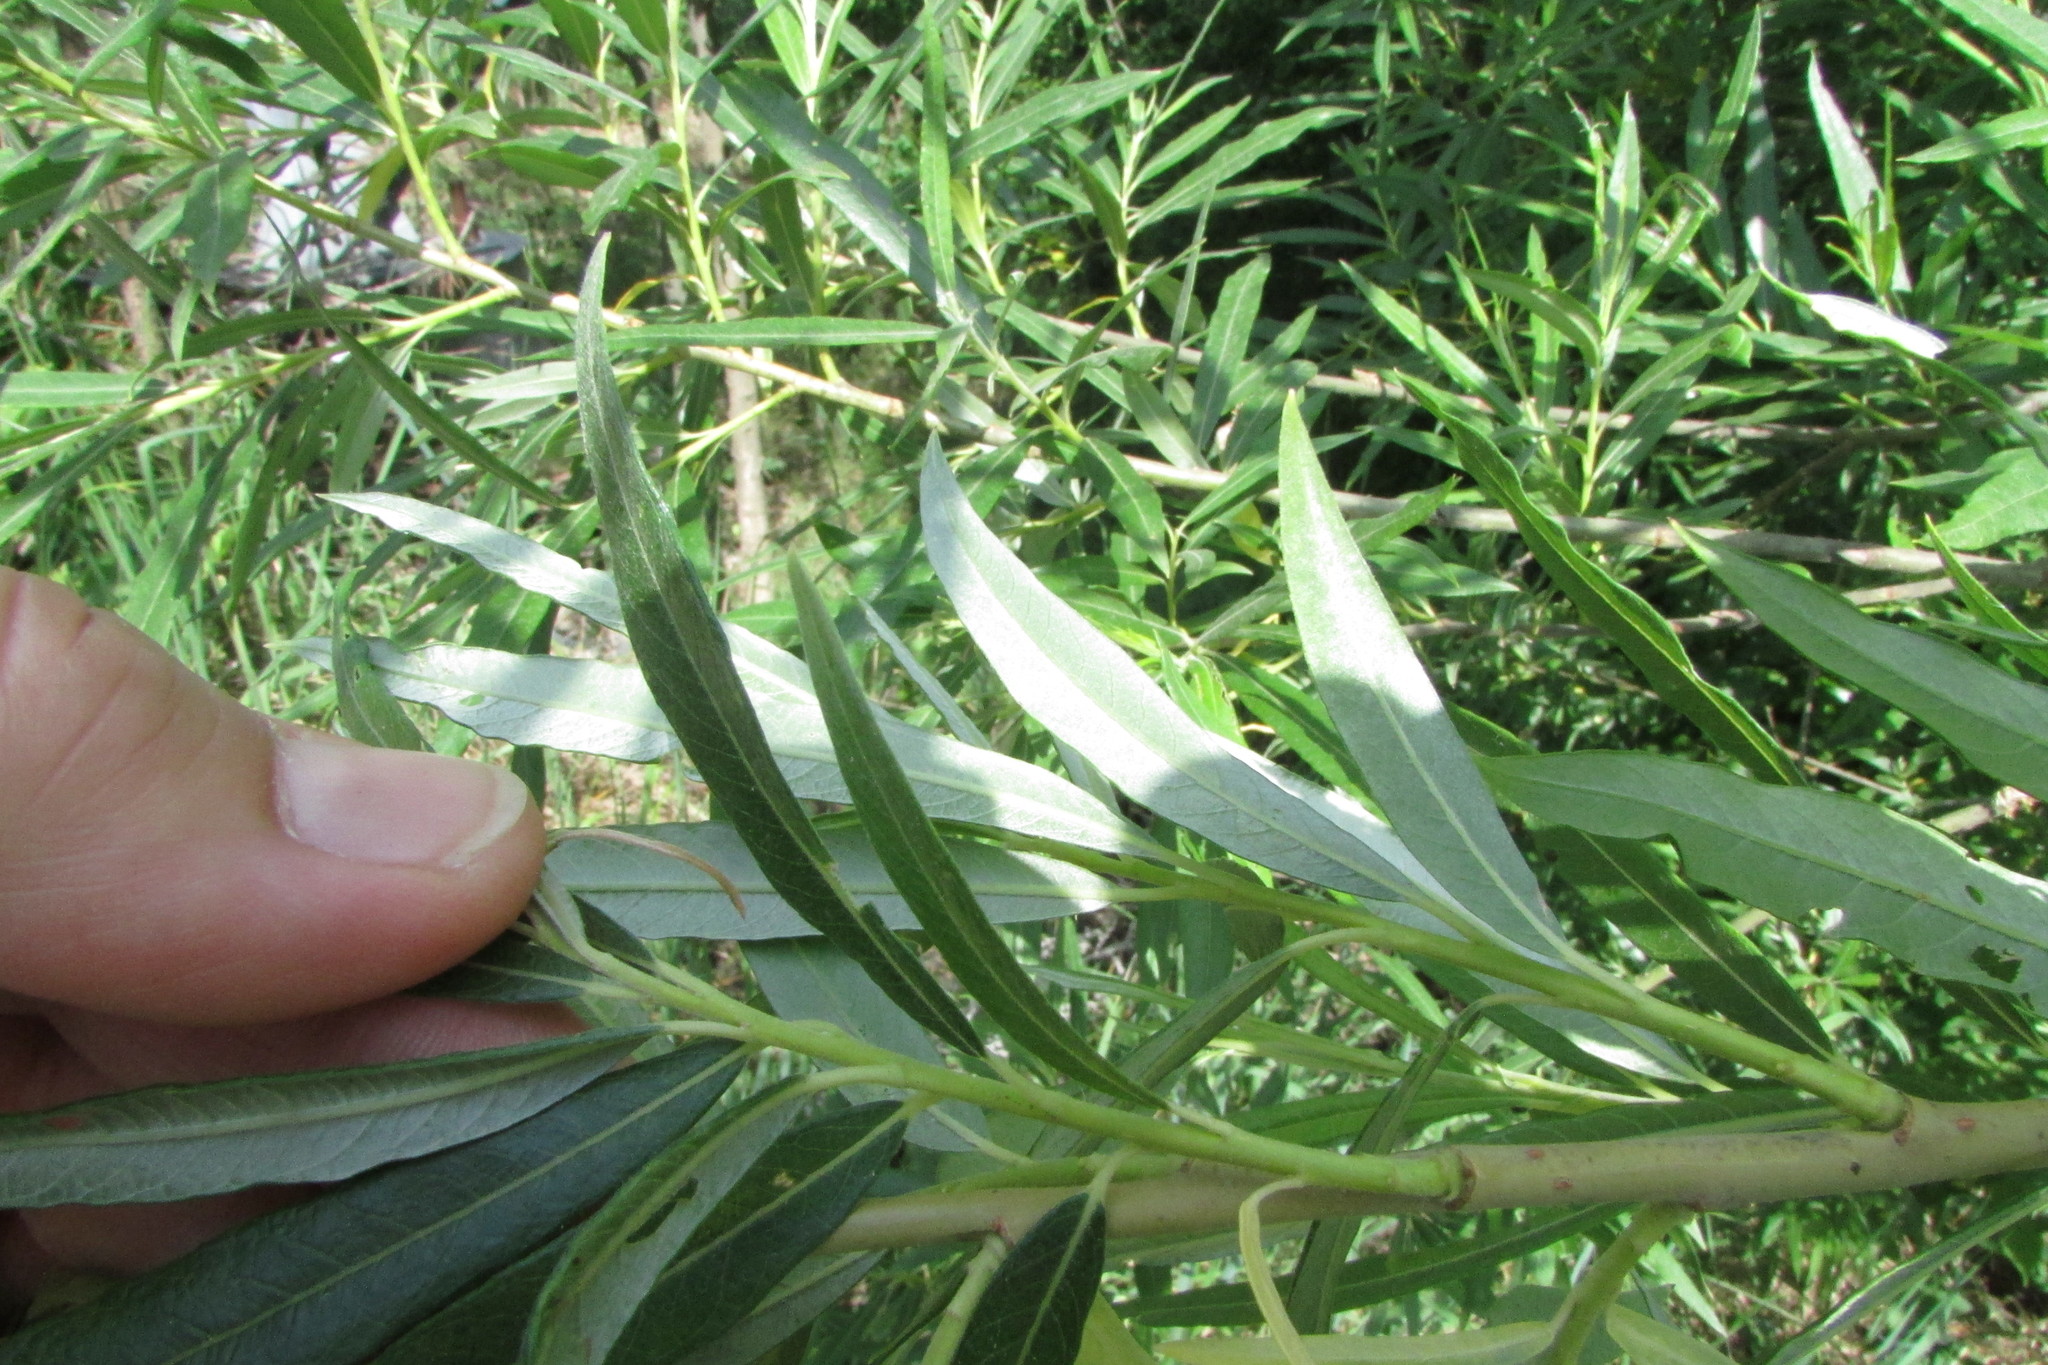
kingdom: Plantae
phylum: Tracheophyta
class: Magnoliopsida
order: Malpighiales
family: Salicaceae
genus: Salix
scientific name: Salix viminalis
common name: Osier
